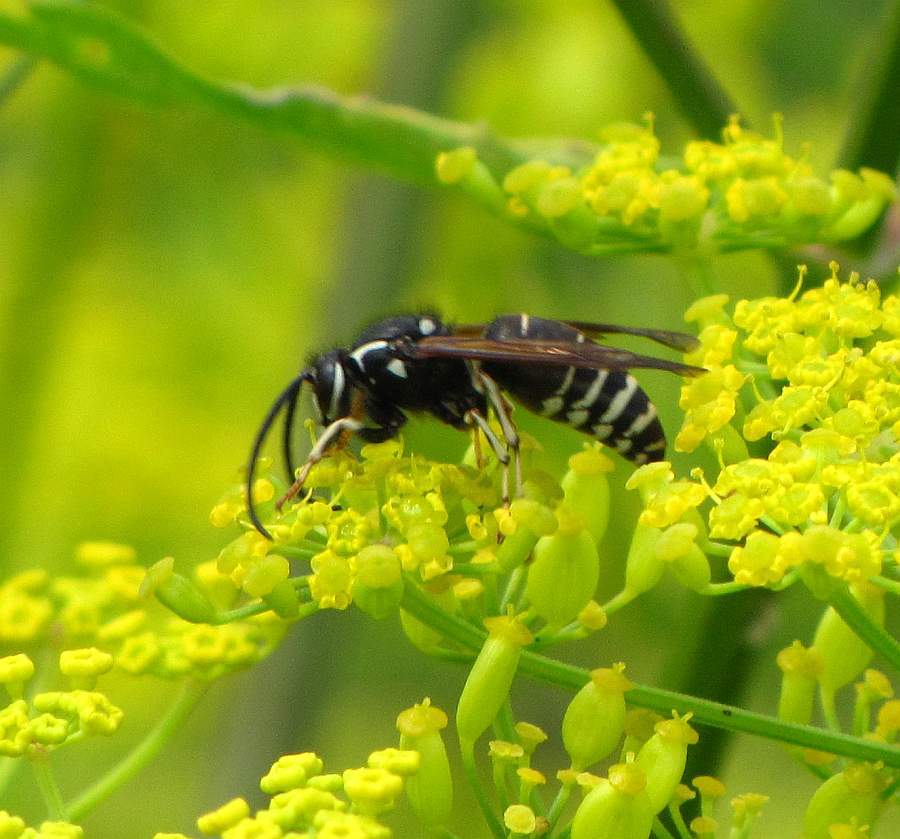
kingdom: Animalia
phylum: Arthropoda
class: Insecta
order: Hymenoptera
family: Vespidae
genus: Dolichovespula
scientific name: Dolichovespula adulterina
